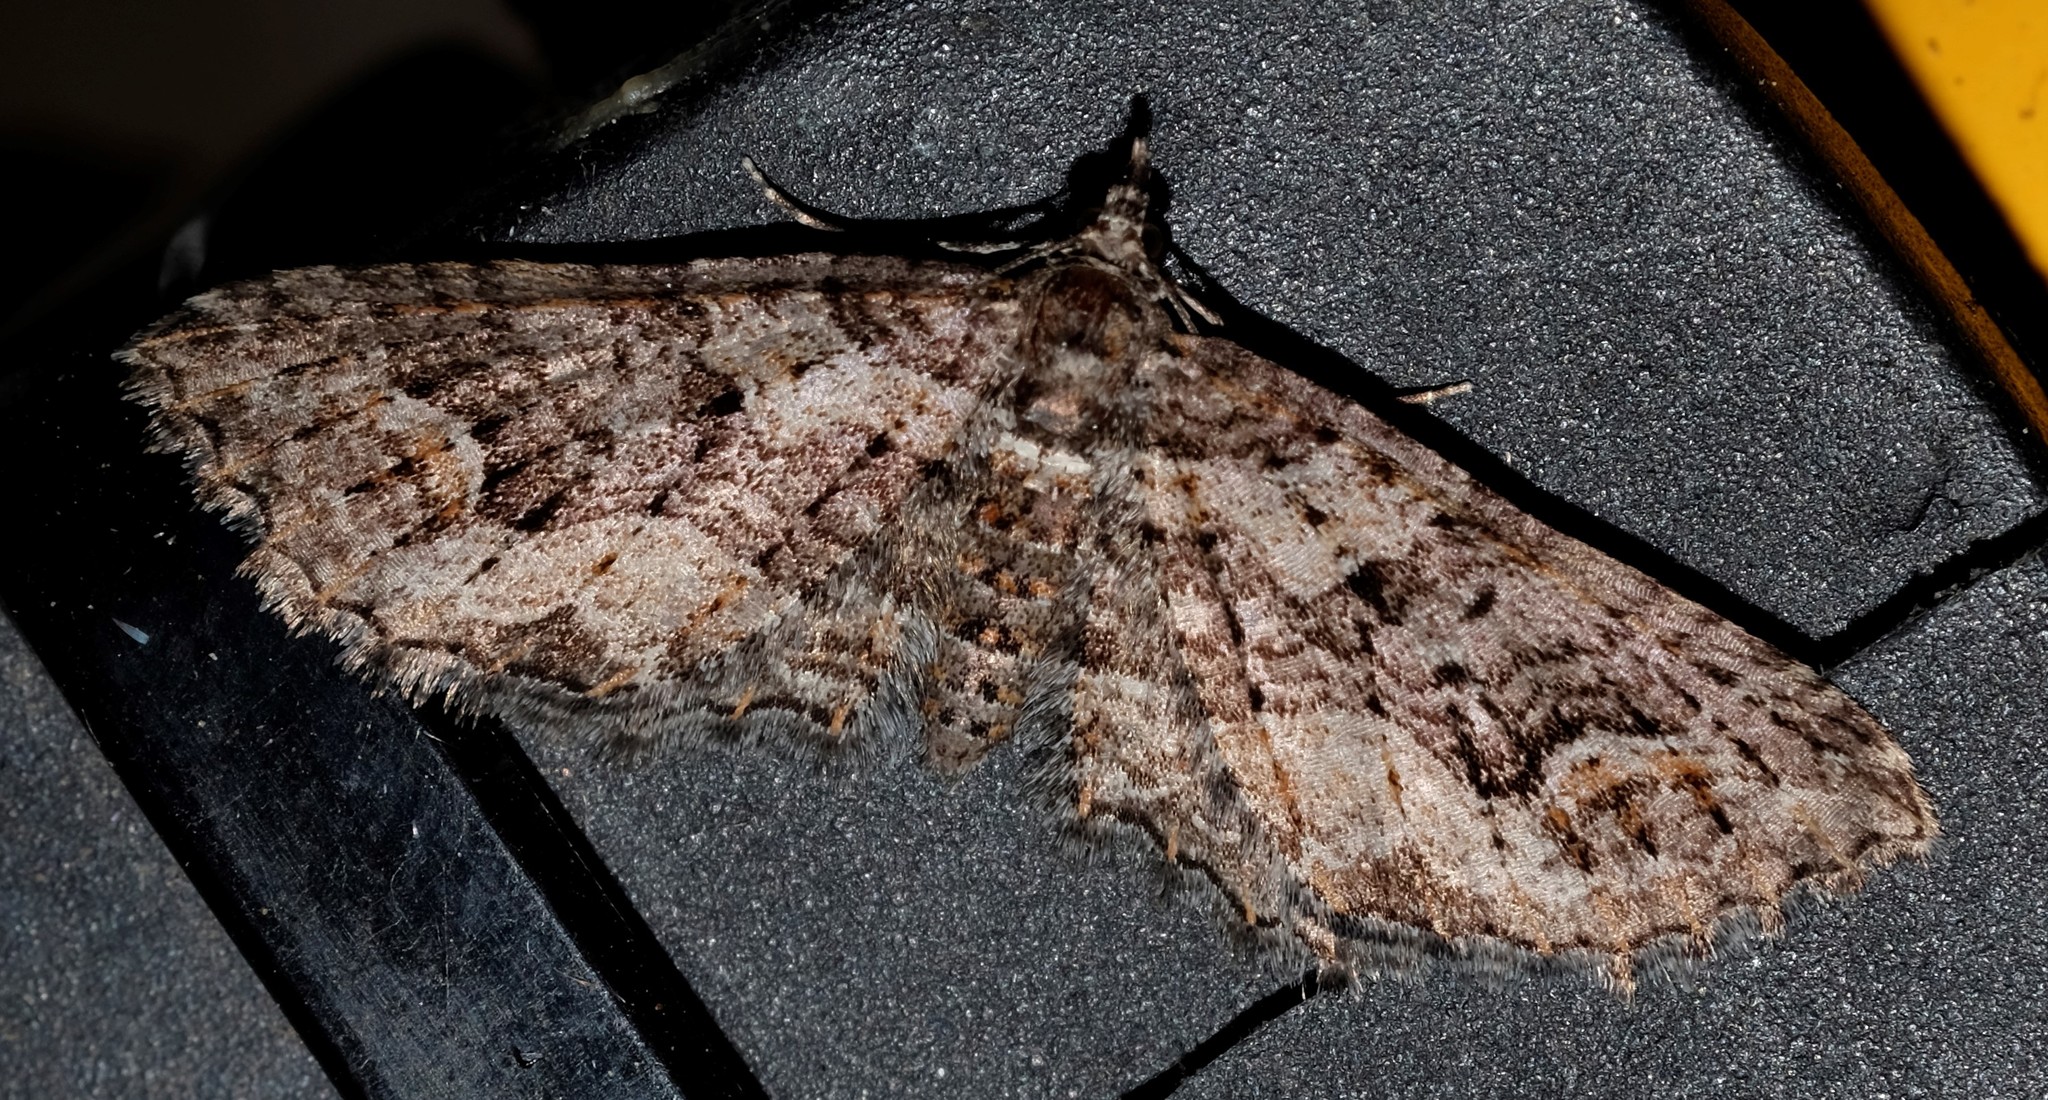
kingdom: Animalia
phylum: Arthropoda
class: Insecta
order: Lepidoptera
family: Geometridae
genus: Chrysolarentia
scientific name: Chrysolarentia plesia
